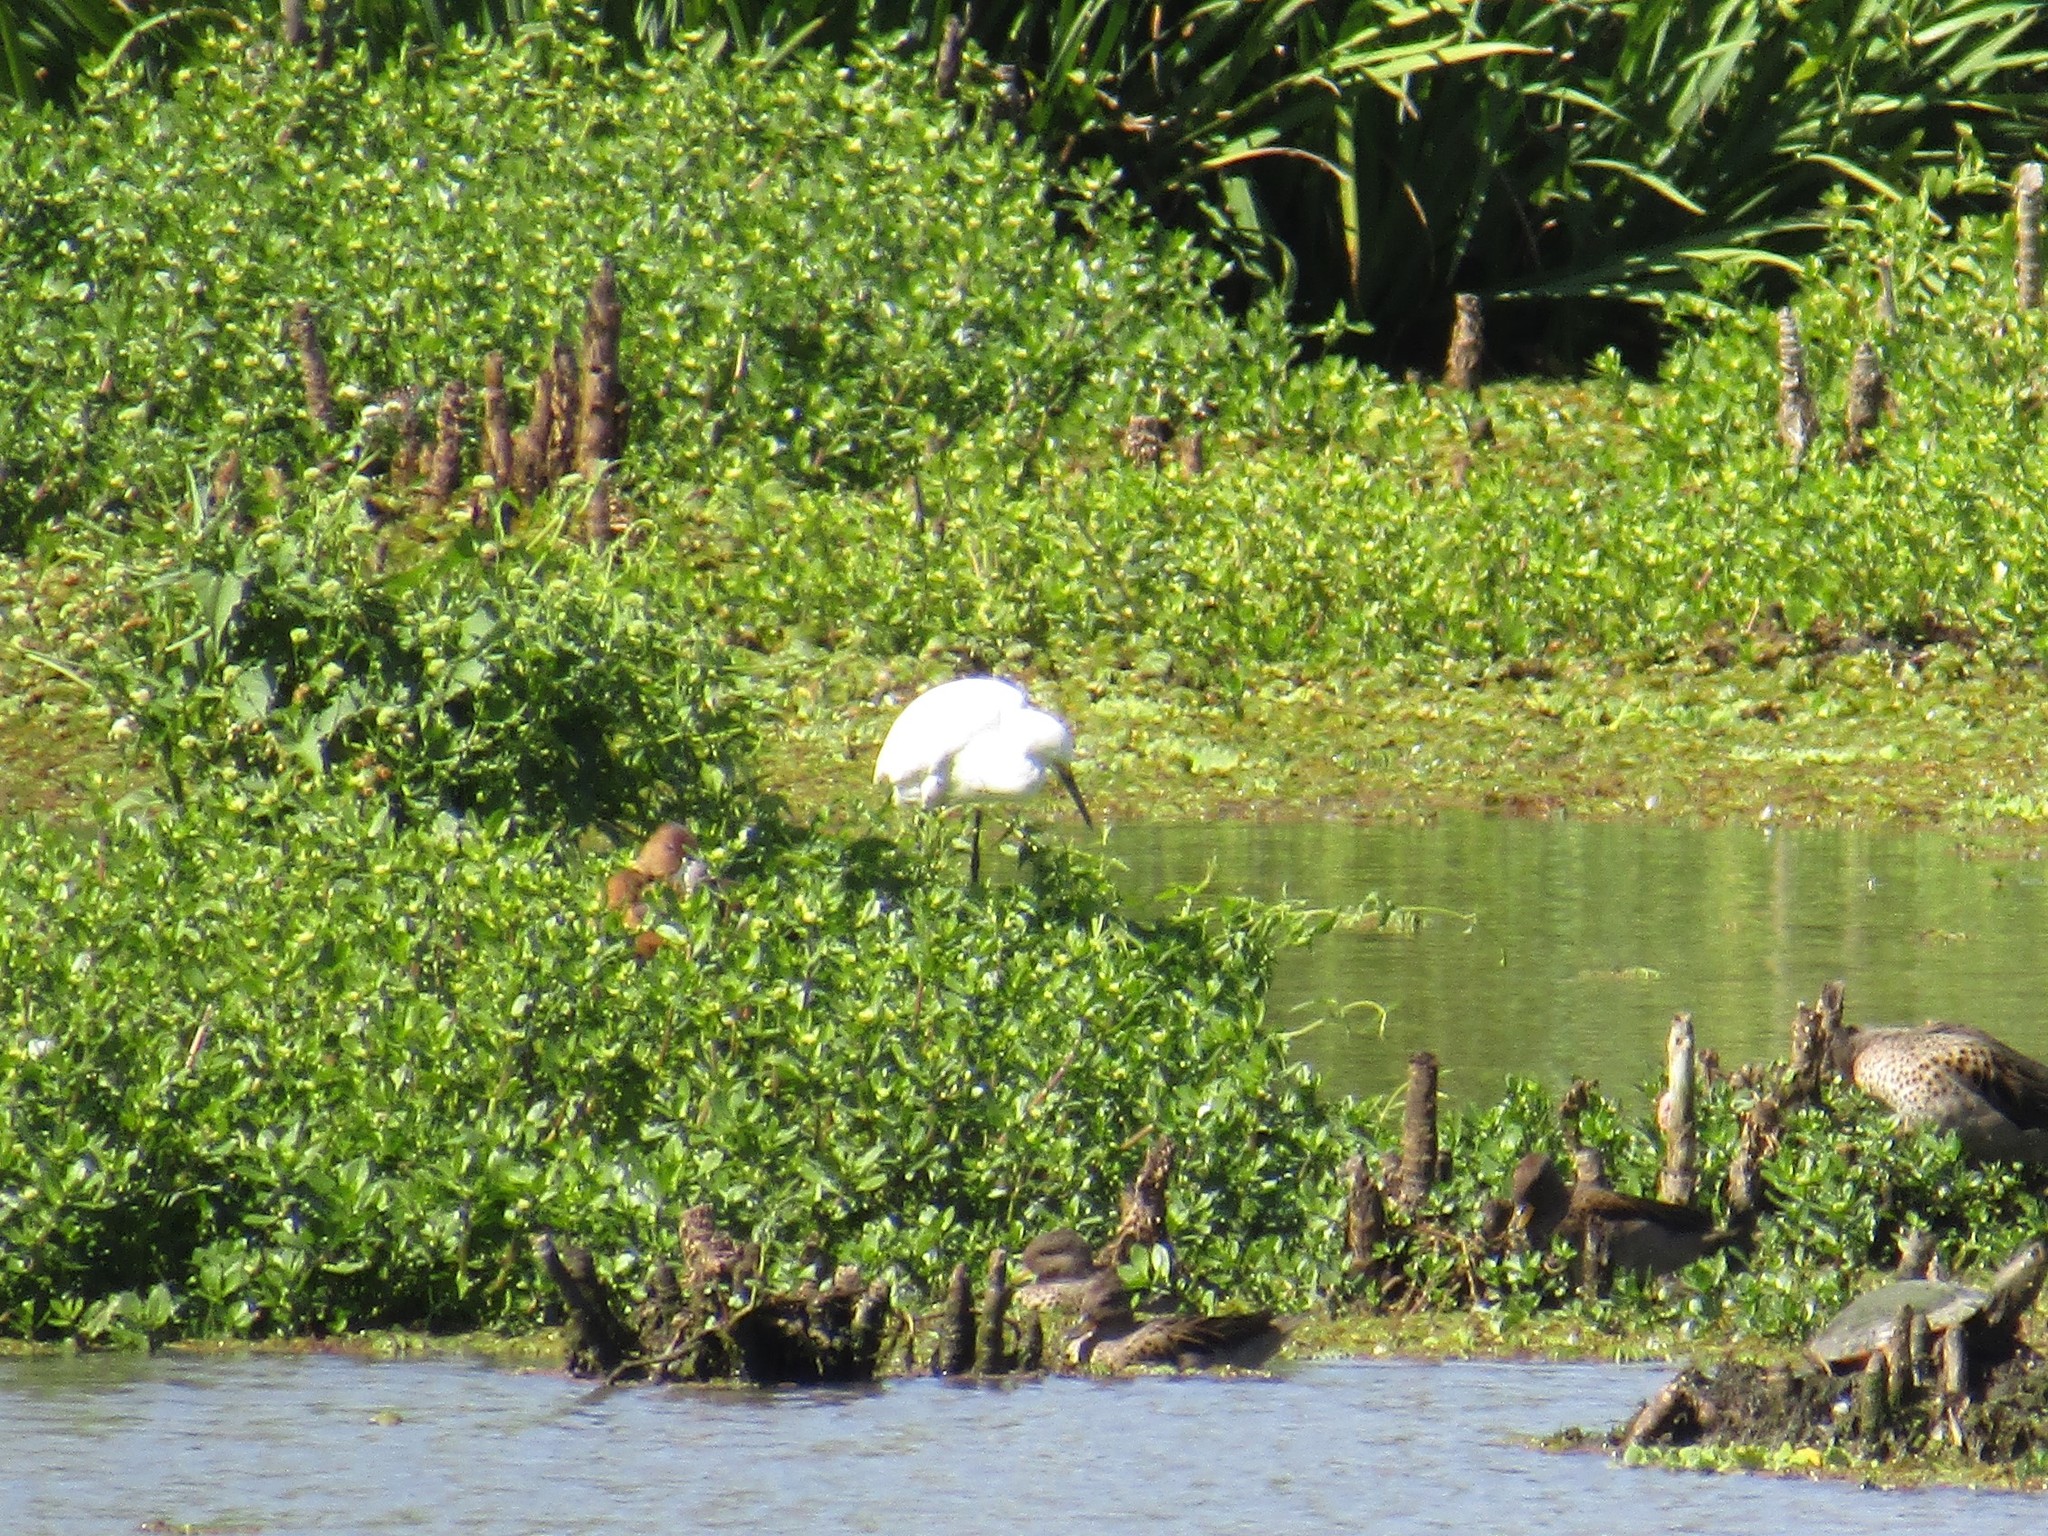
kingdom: Animalia
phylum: Chordata
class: Aves
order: Pelecaniformes
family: Ardeidae
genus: Egretta
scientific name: Egretta thula
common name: Snowy egret
